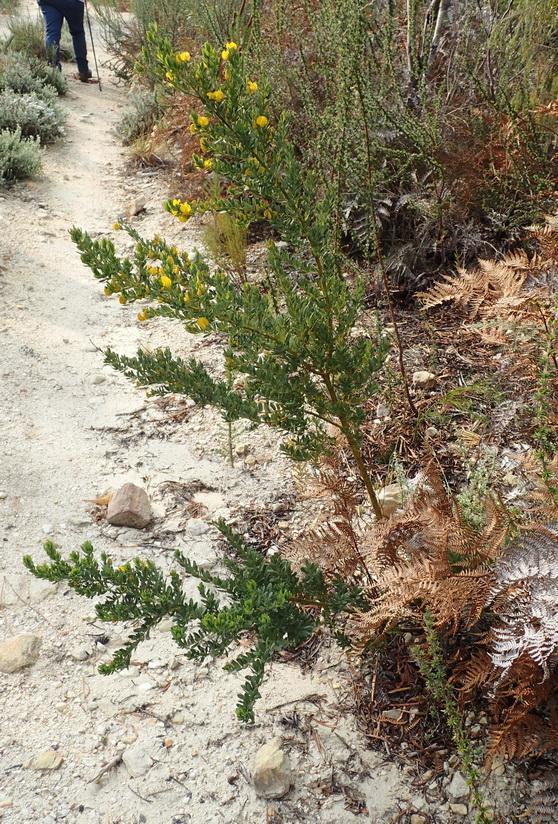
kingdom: Plantae
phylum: Tracheophyta
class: Magnoliopsida
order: Fabales
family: Fabaceae
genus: Cyclopia
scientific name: Cyclopia subternata
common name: Honeybush tea
